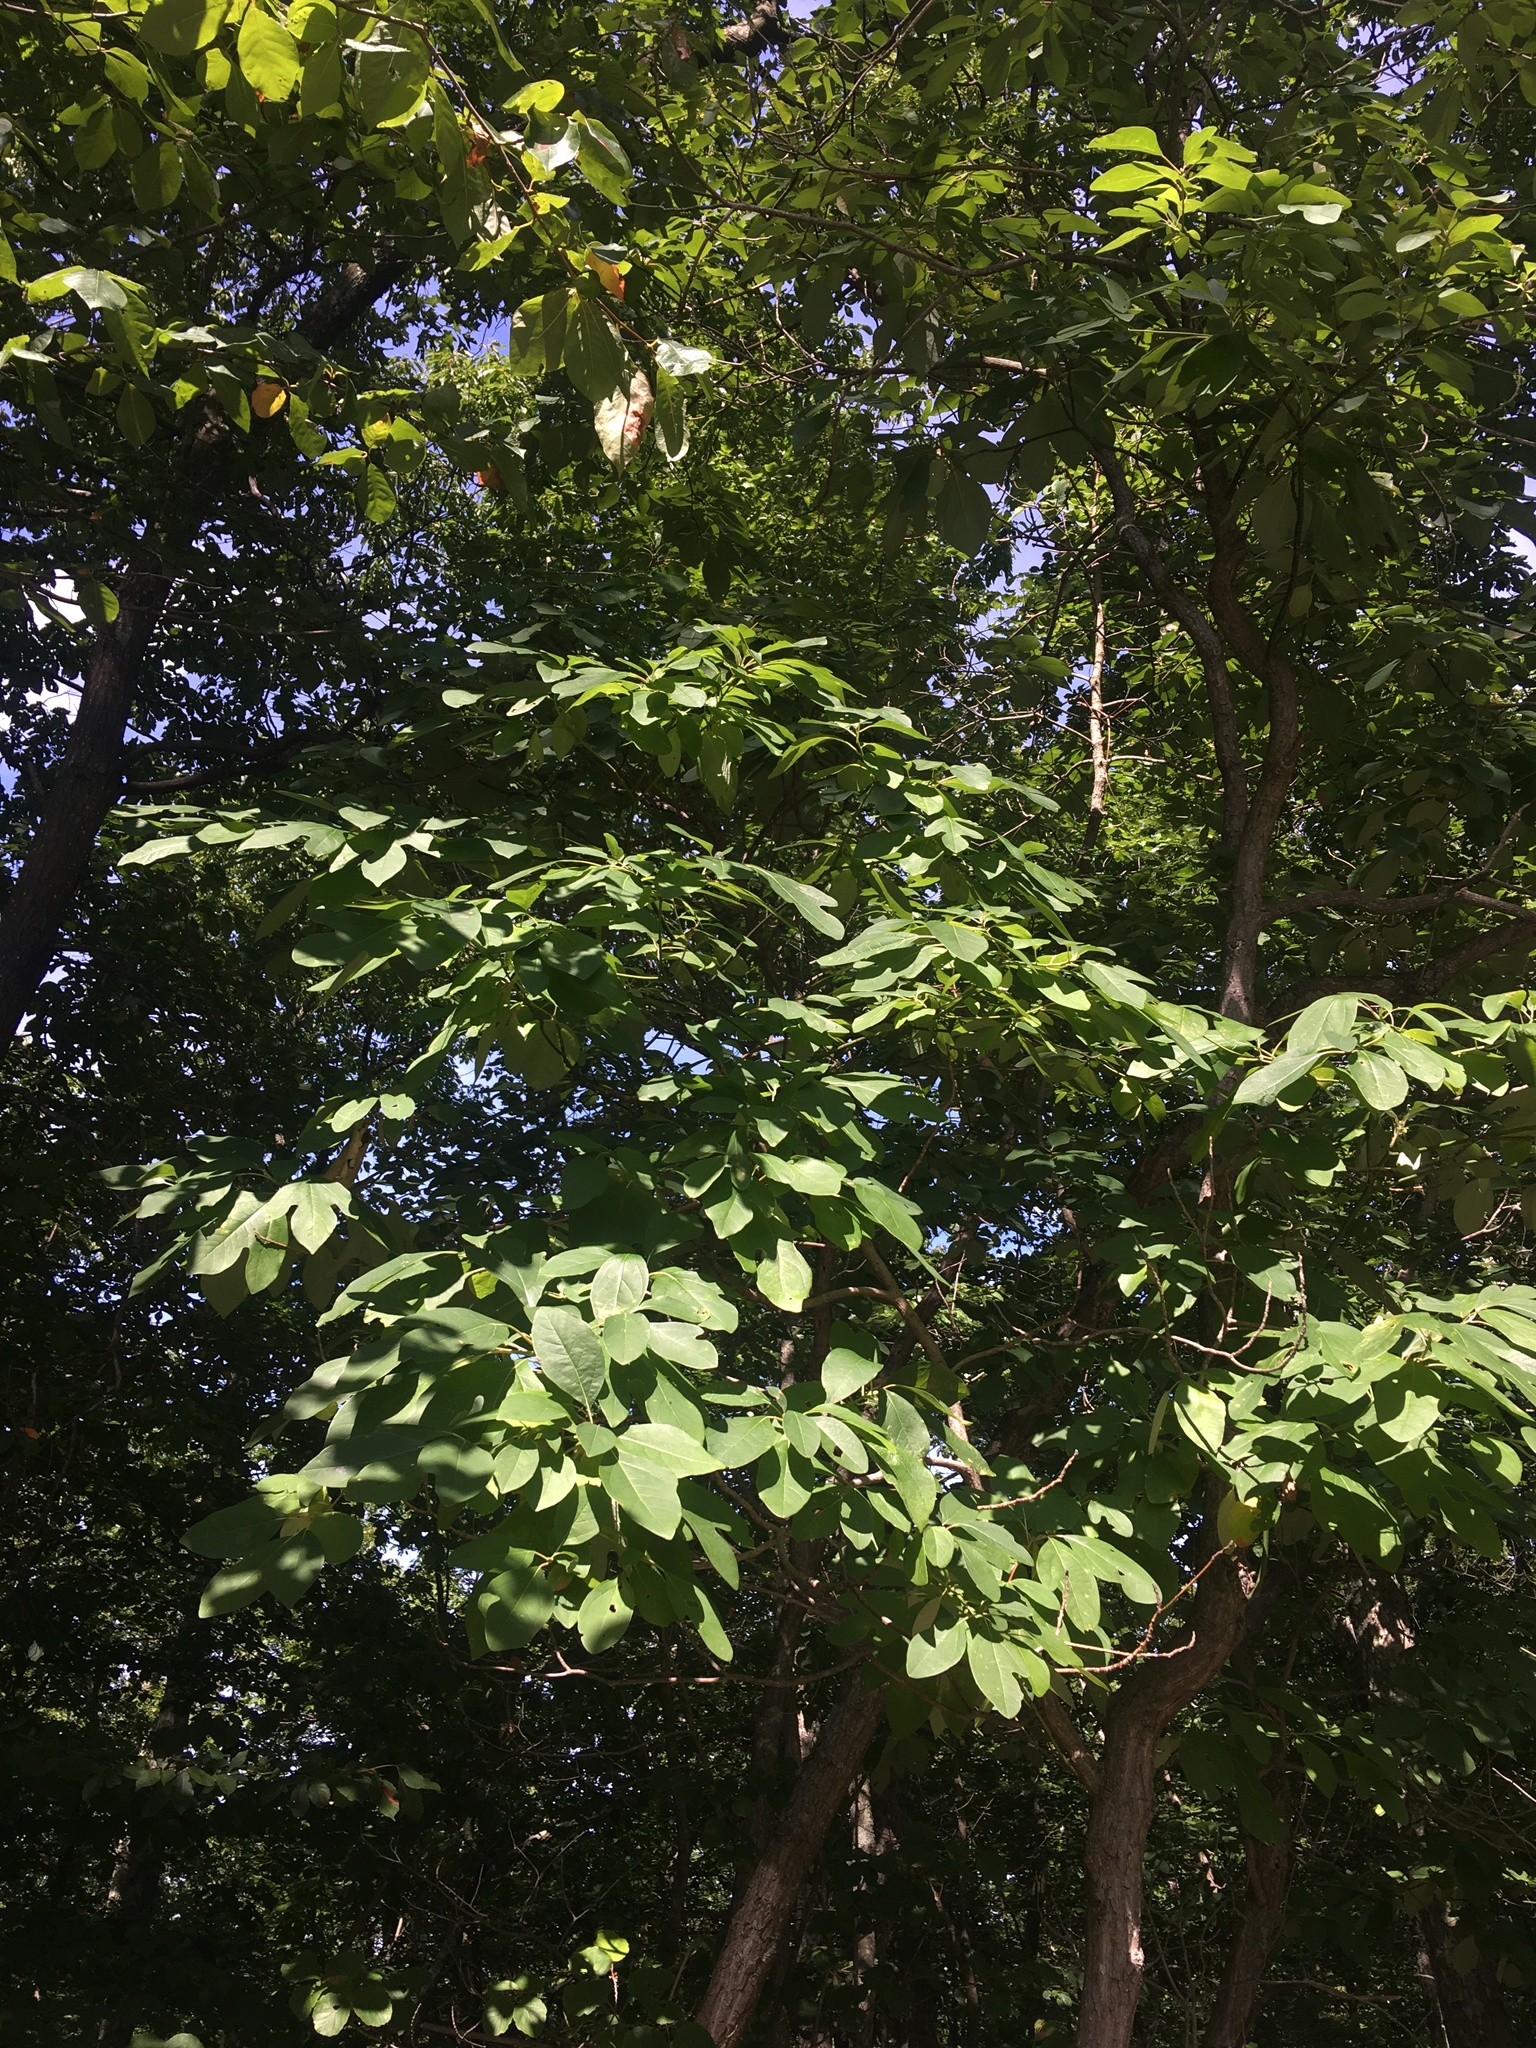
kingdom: Plantae
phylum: Tracheophyta
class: Magnoliopsida
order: Laurales
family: Lauraceae
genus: Sassafras
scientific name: Sassafras albidum
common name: Sassafras
